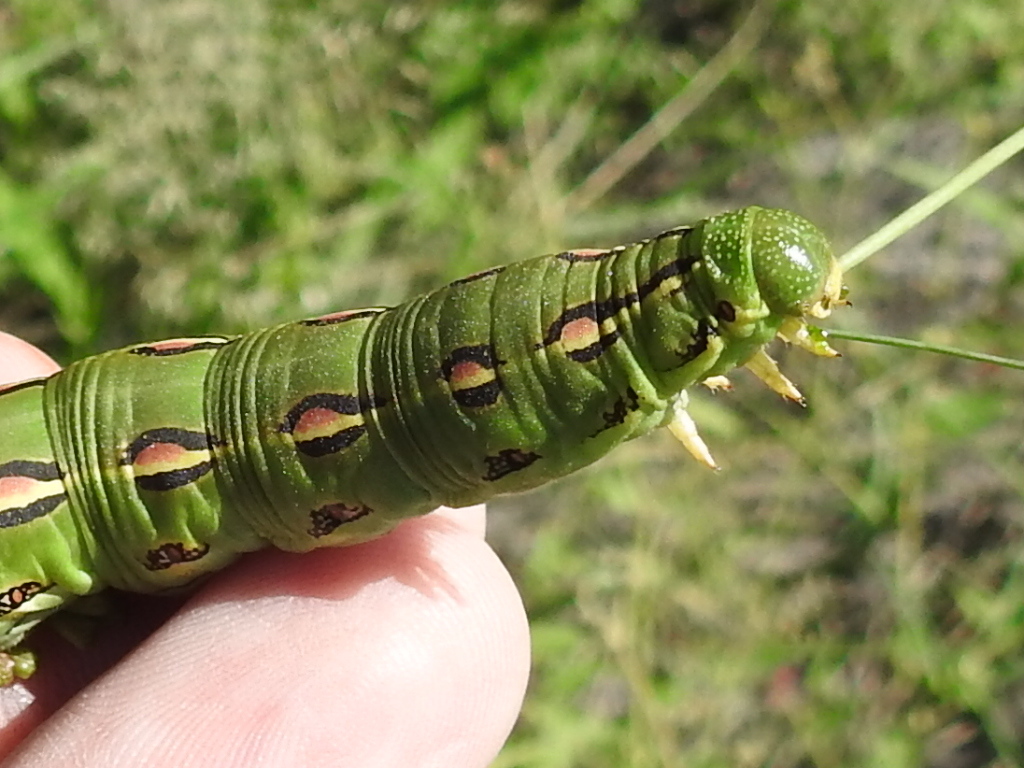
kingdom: Animalia
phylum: Arthropoda
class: Insecta
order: Lepidoptera
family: Sphingidae
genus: Hyles
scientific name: Hyles lineata
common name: White-lined sphinx
